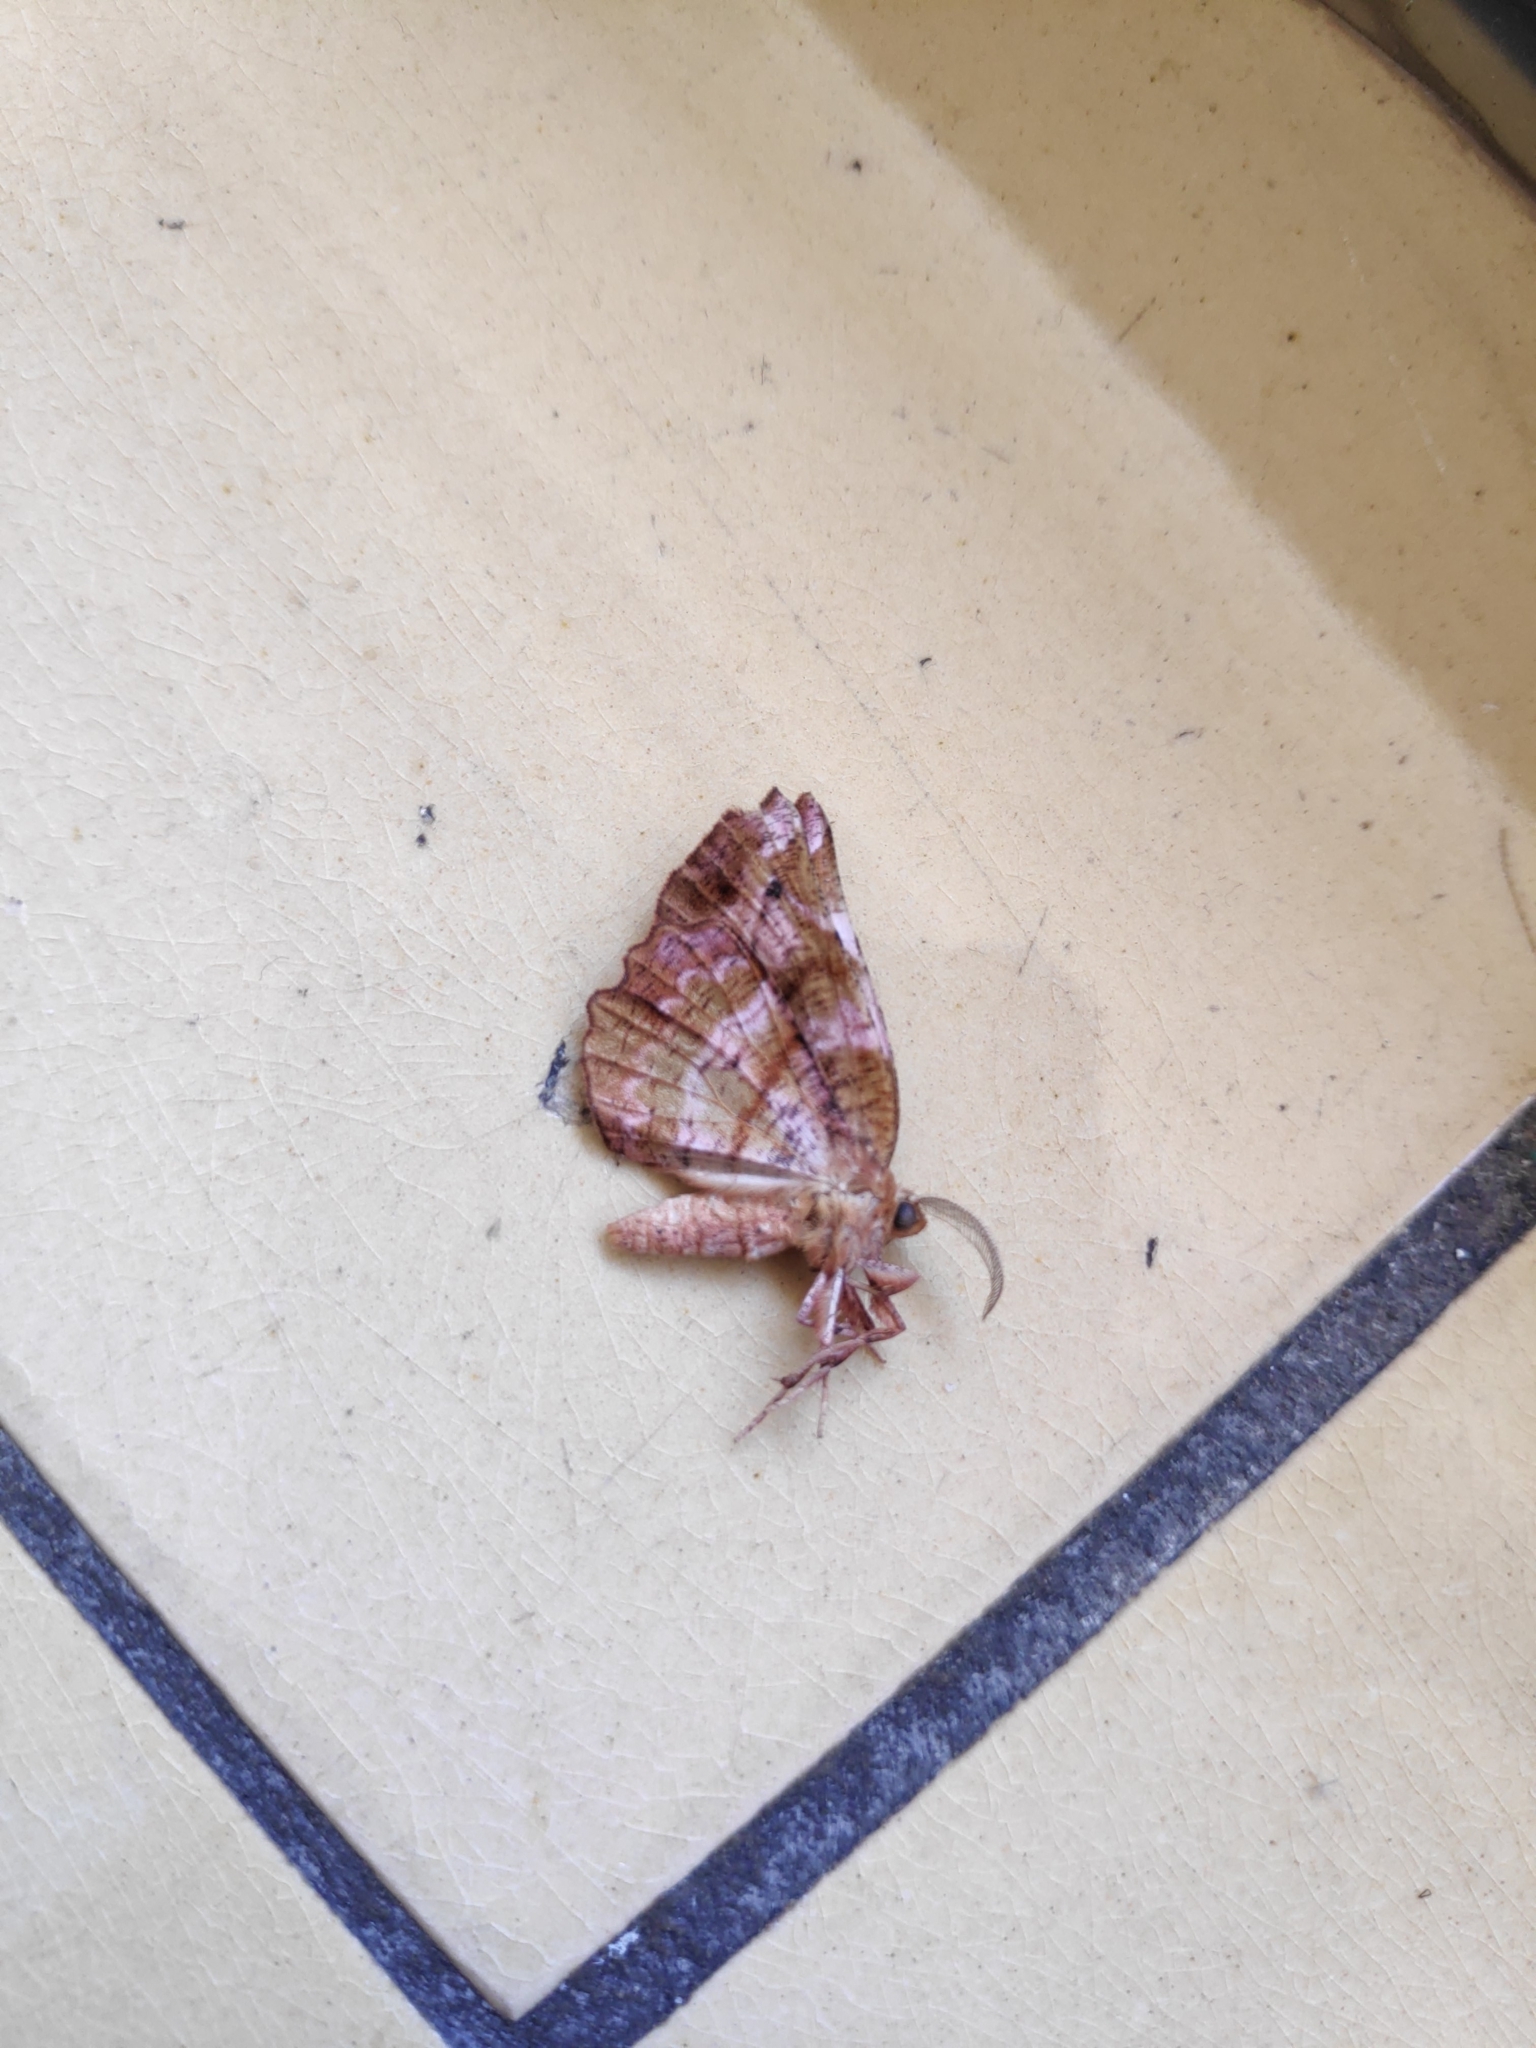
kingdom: Animalia
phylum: Arthropoda
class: Insecta
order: Lepidoptera
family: Geometridae
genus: Cepphis
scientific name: Cepphis advenaria
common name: Little thorn
